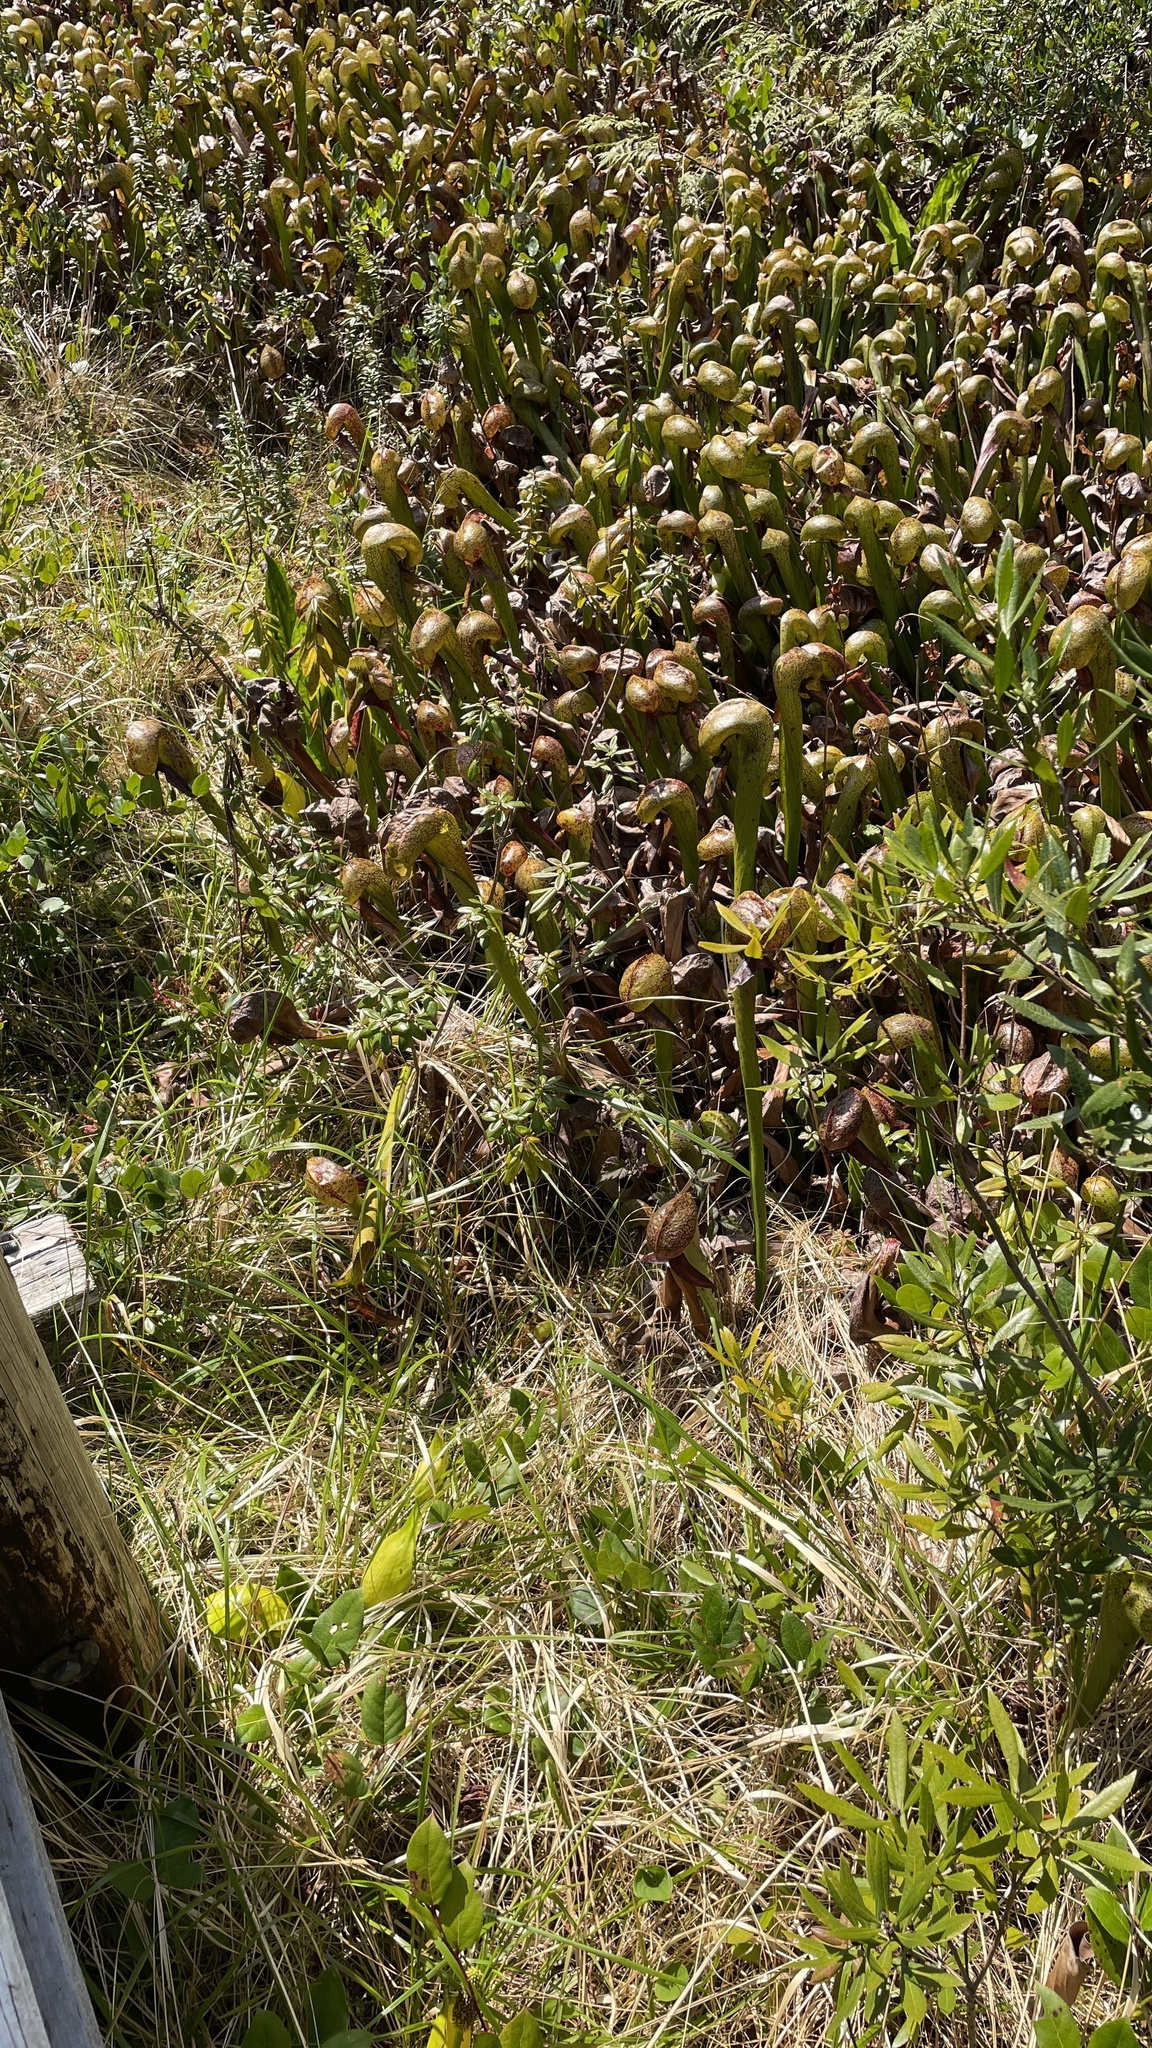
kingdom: Plantae
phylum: Tracheophyta
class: Magnoliopsida
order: Ericales
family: Sarraceniaceae
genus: Darlingtonia
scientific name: Darlingtonia californica
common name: California pitcher plant
